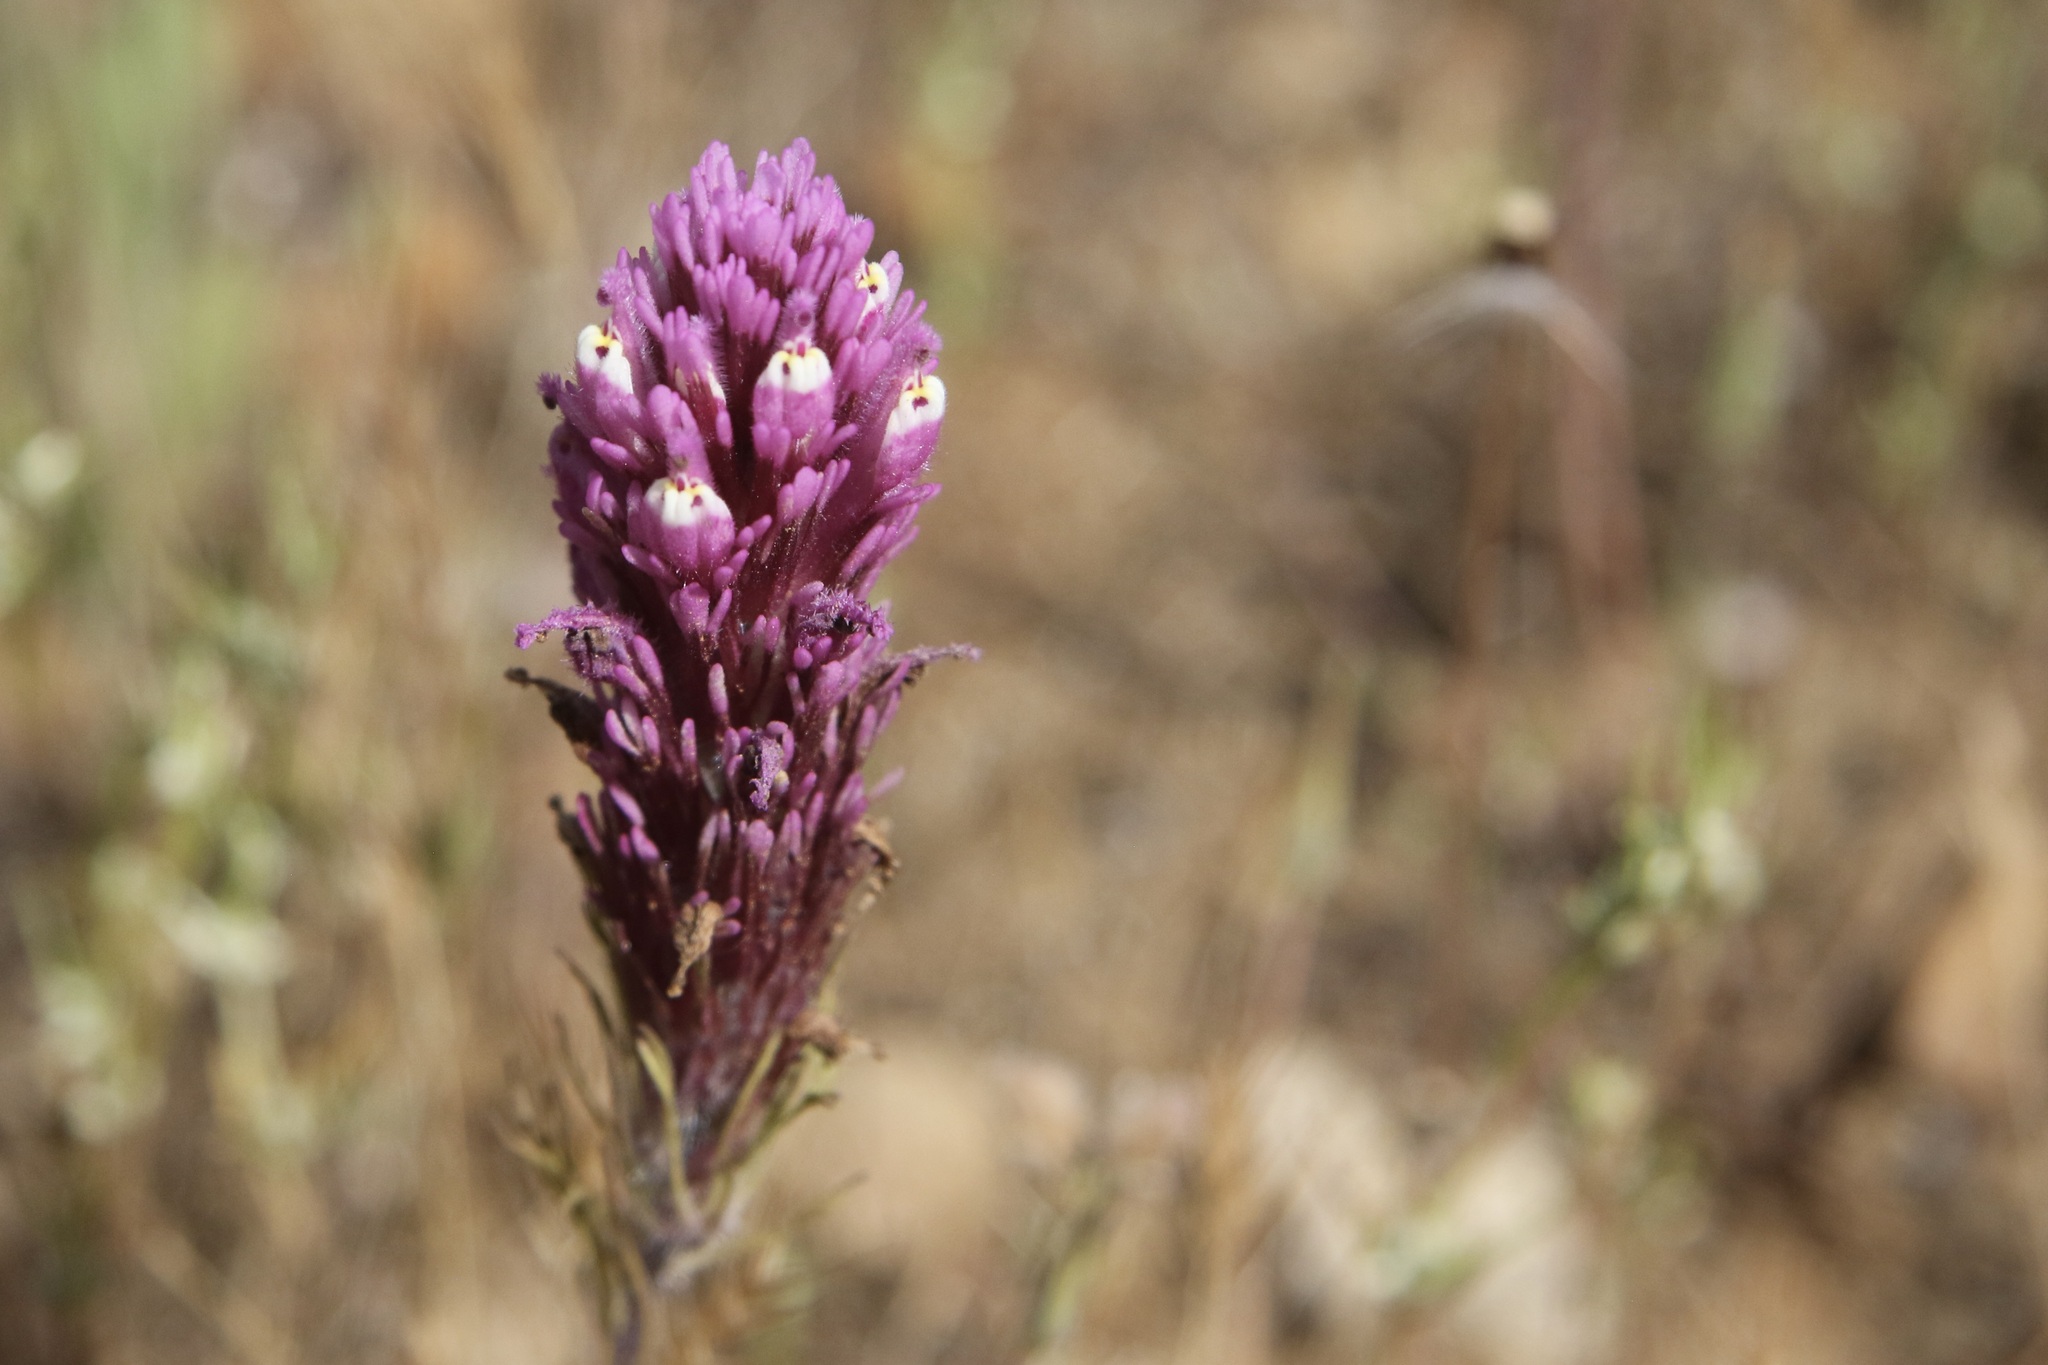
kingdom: Plantae
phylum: Tracheophyta
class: Magnoliopsida
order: Lamiales
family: Orobanchaceae
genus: Castilleja
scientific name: Castilleja exserta
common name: Purple owl-clover
